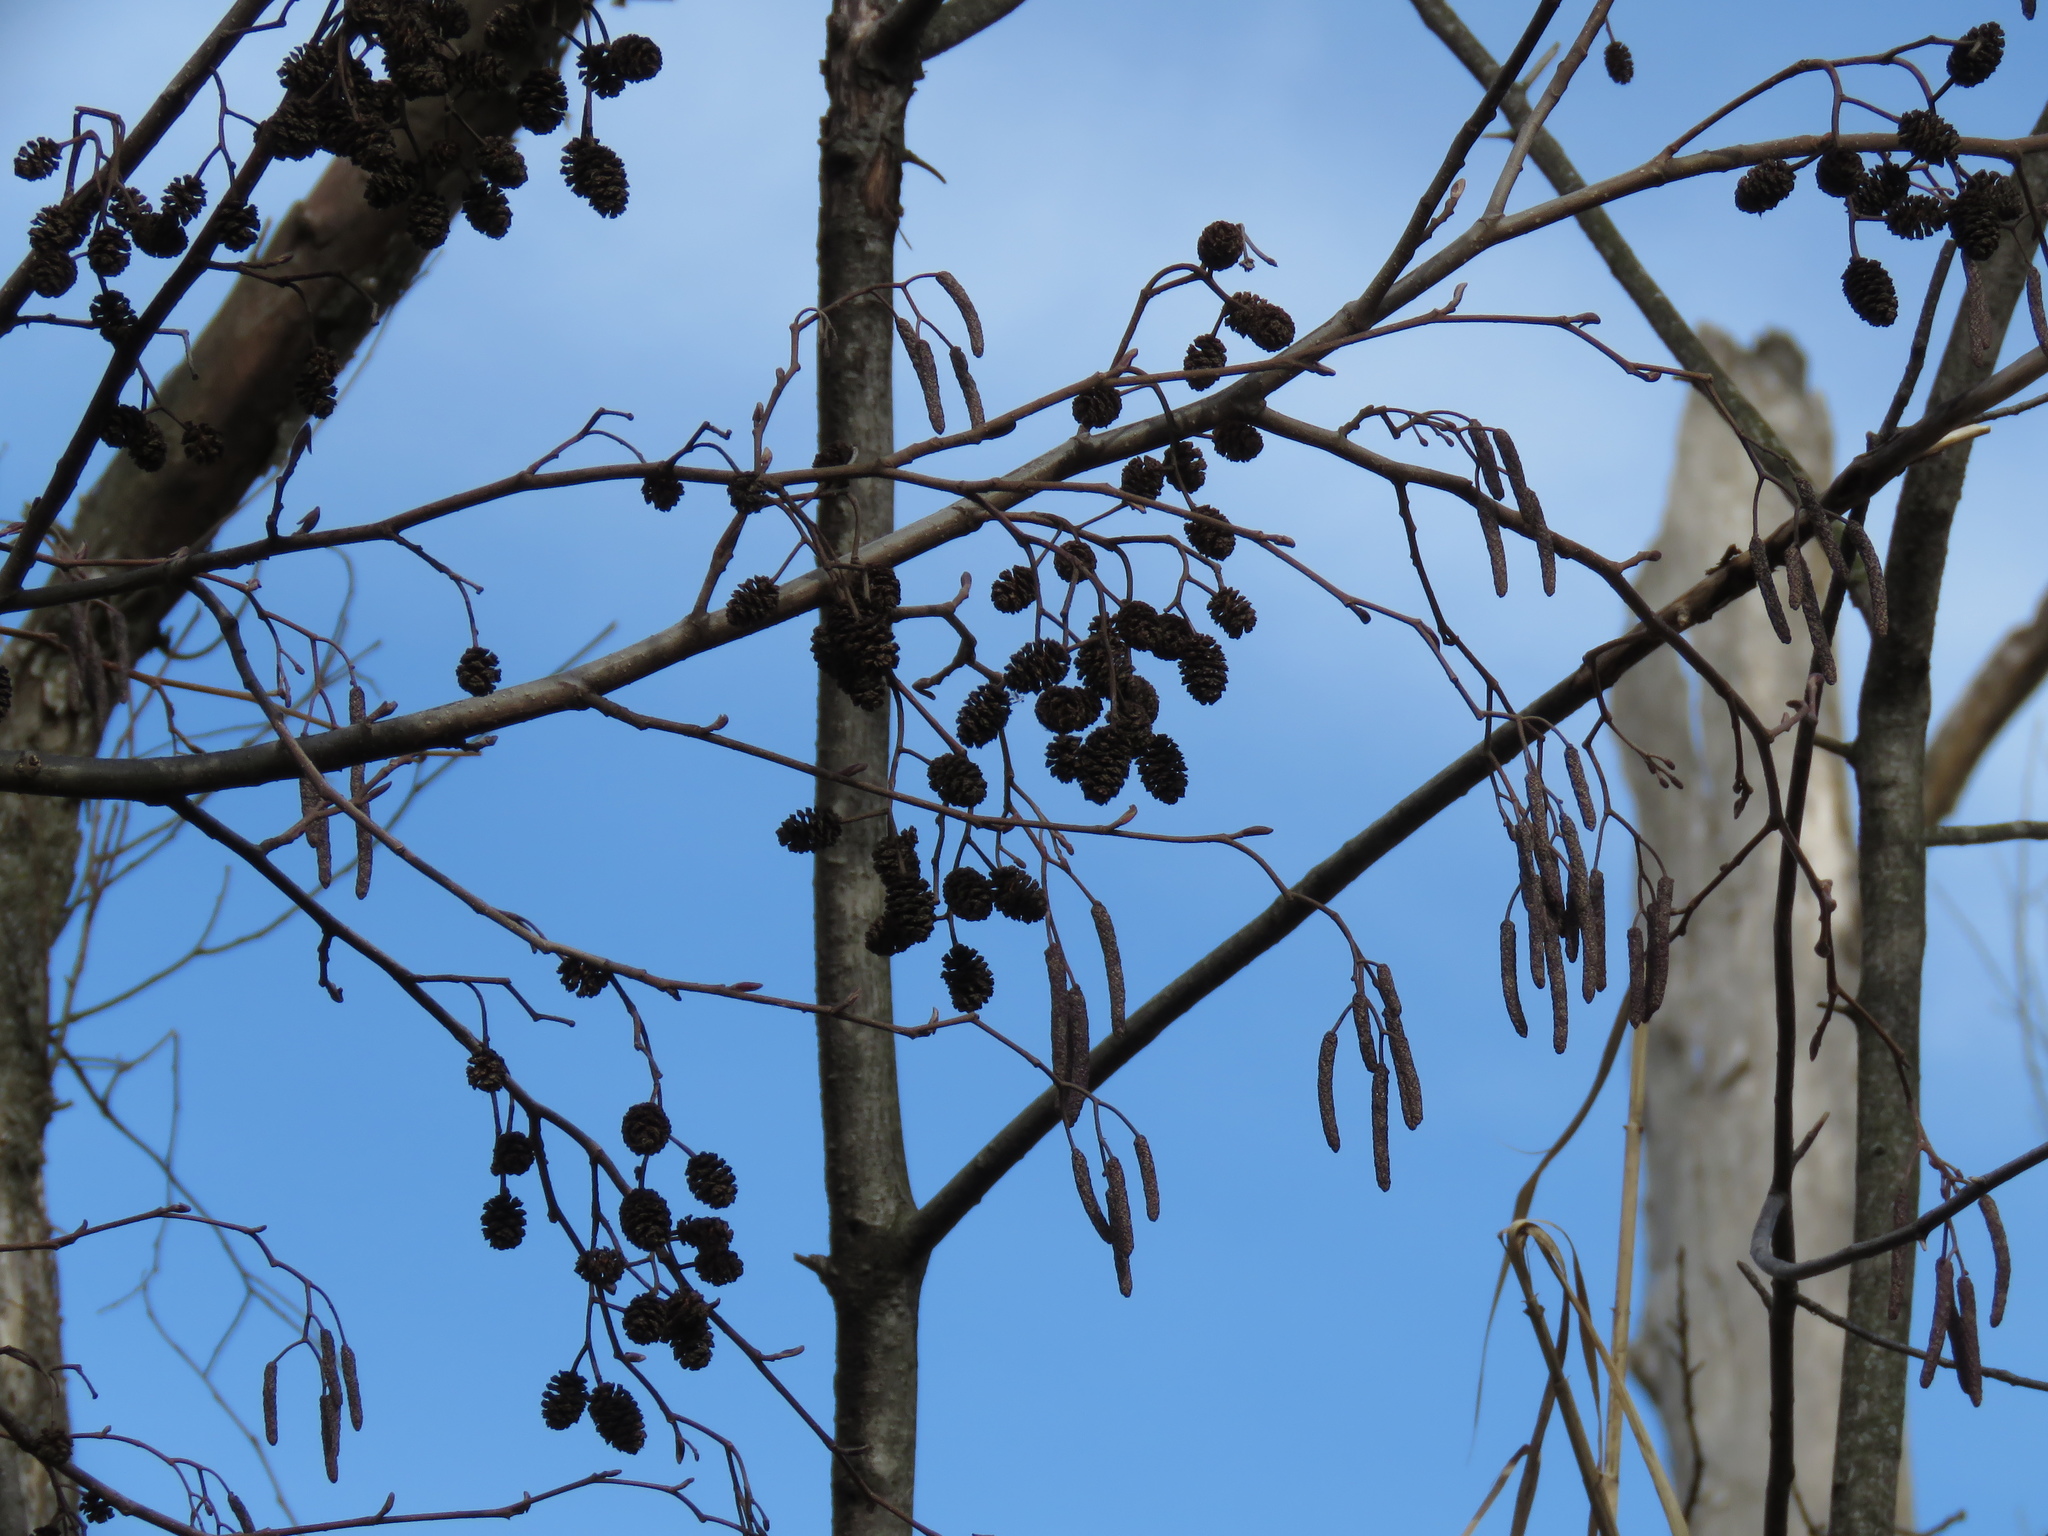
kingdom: Plantae
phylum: Tracheophyta
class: Magnoliopsida
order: Fagales
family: Betulaceae
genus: Alnus
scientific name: Alnus glutinosa
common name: Black alder
